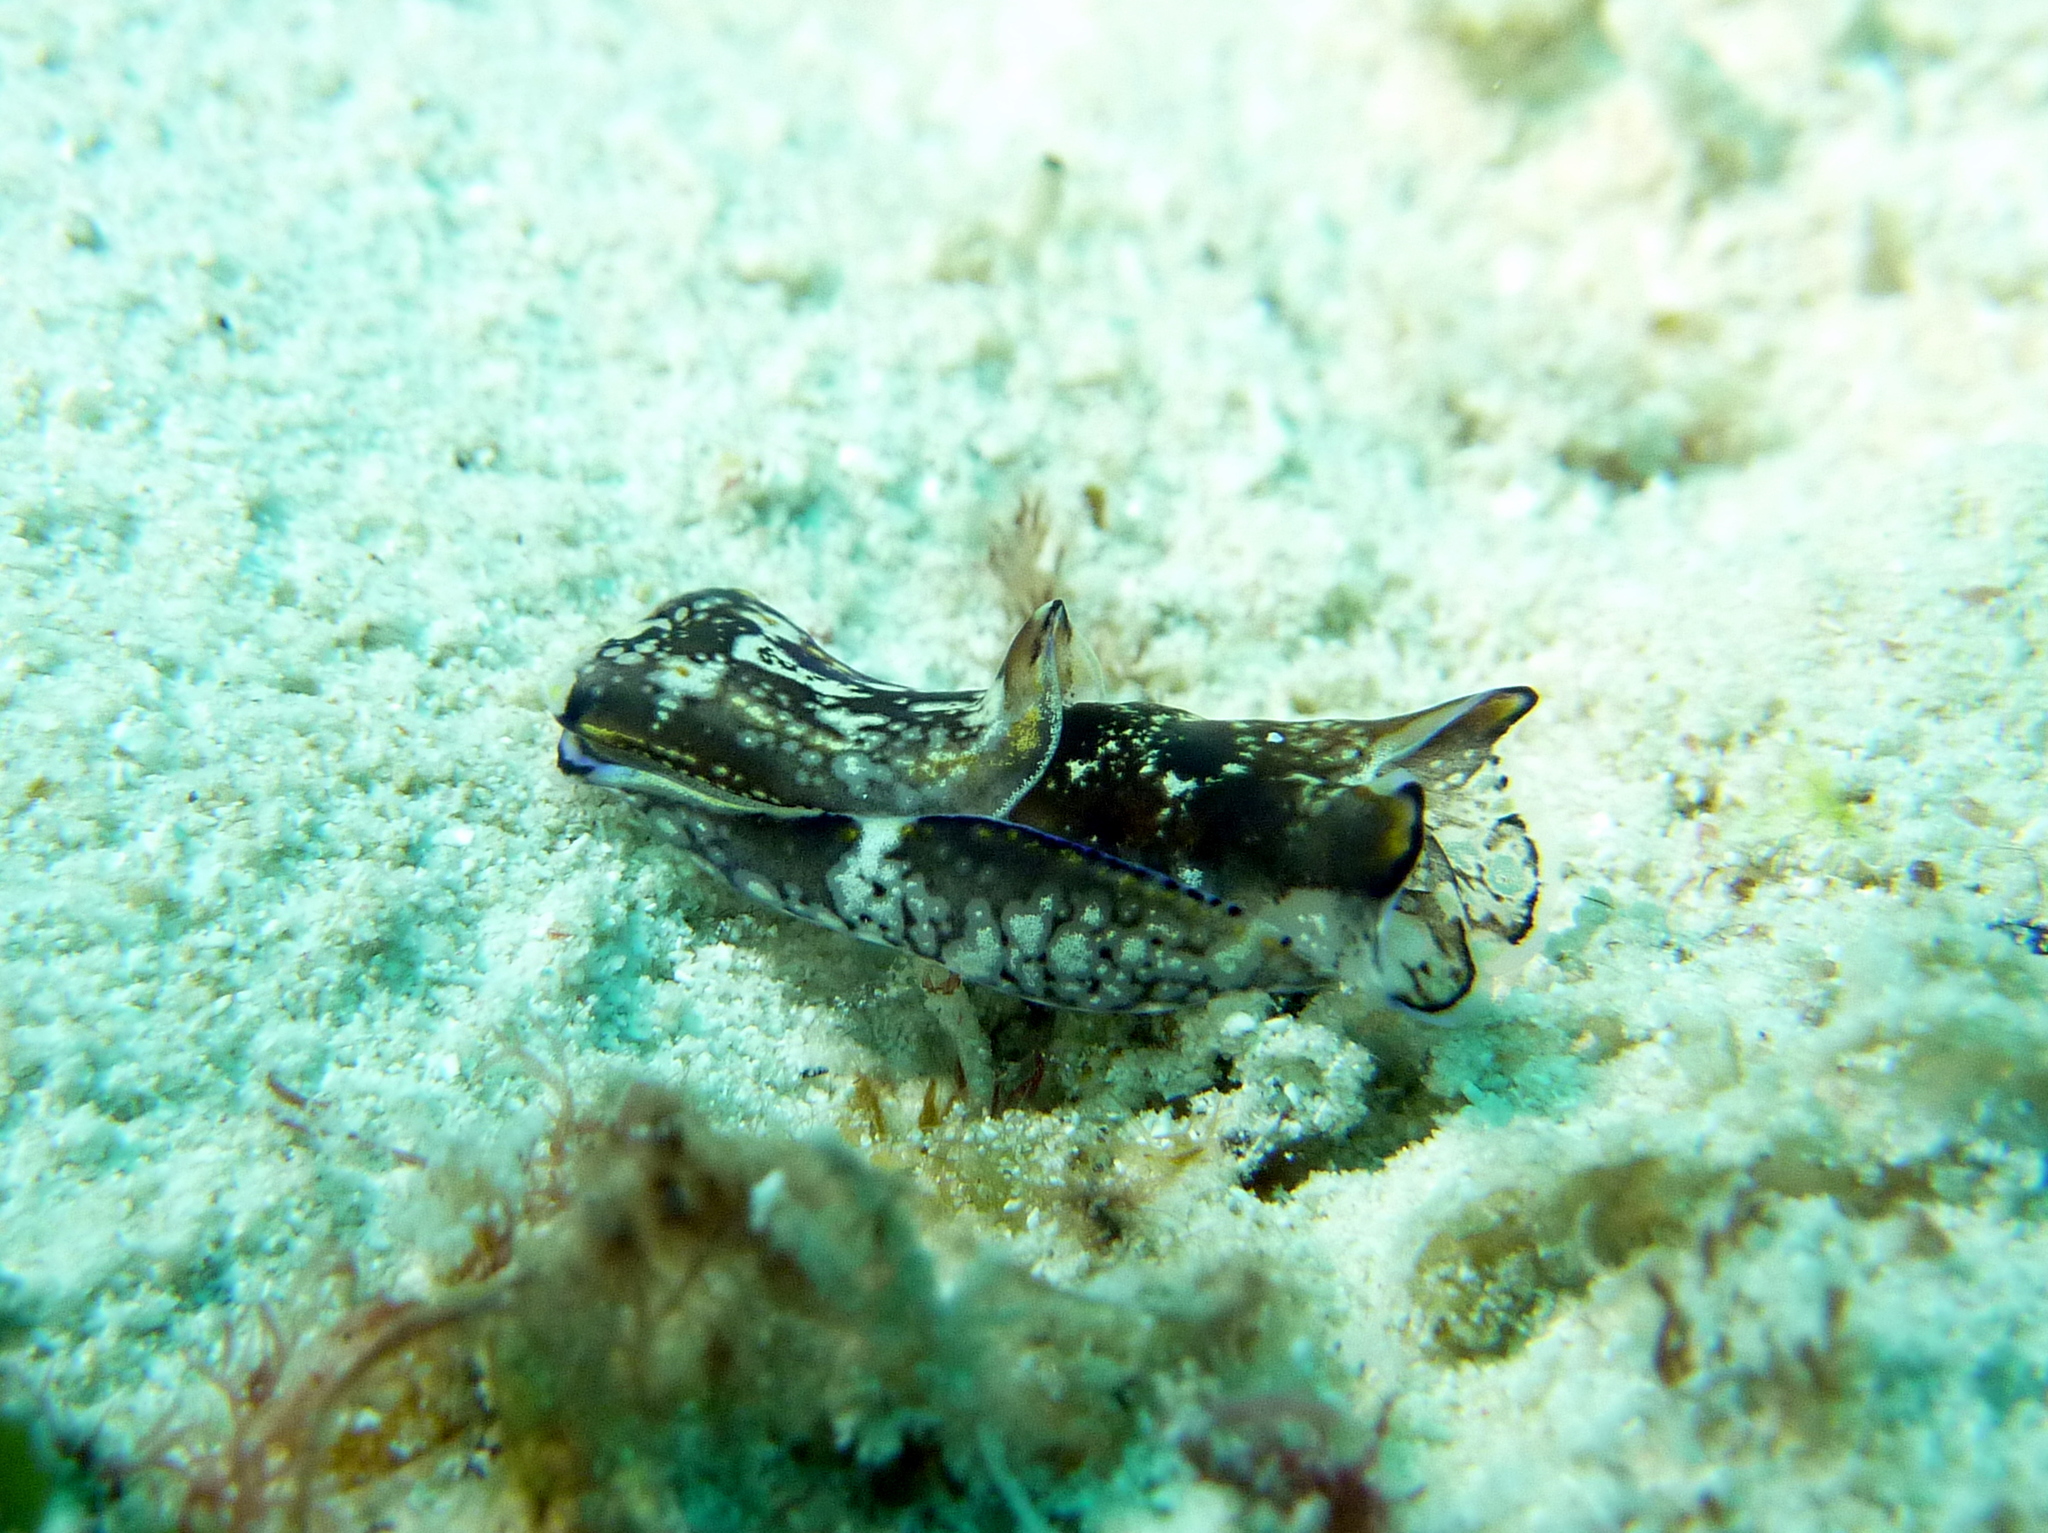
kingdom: Animalia
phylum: Mollusca
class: Gastropoda
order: Cephalaspidea
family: Aglajidae
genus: Philinopsis
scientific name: Philinopsis speciosa
